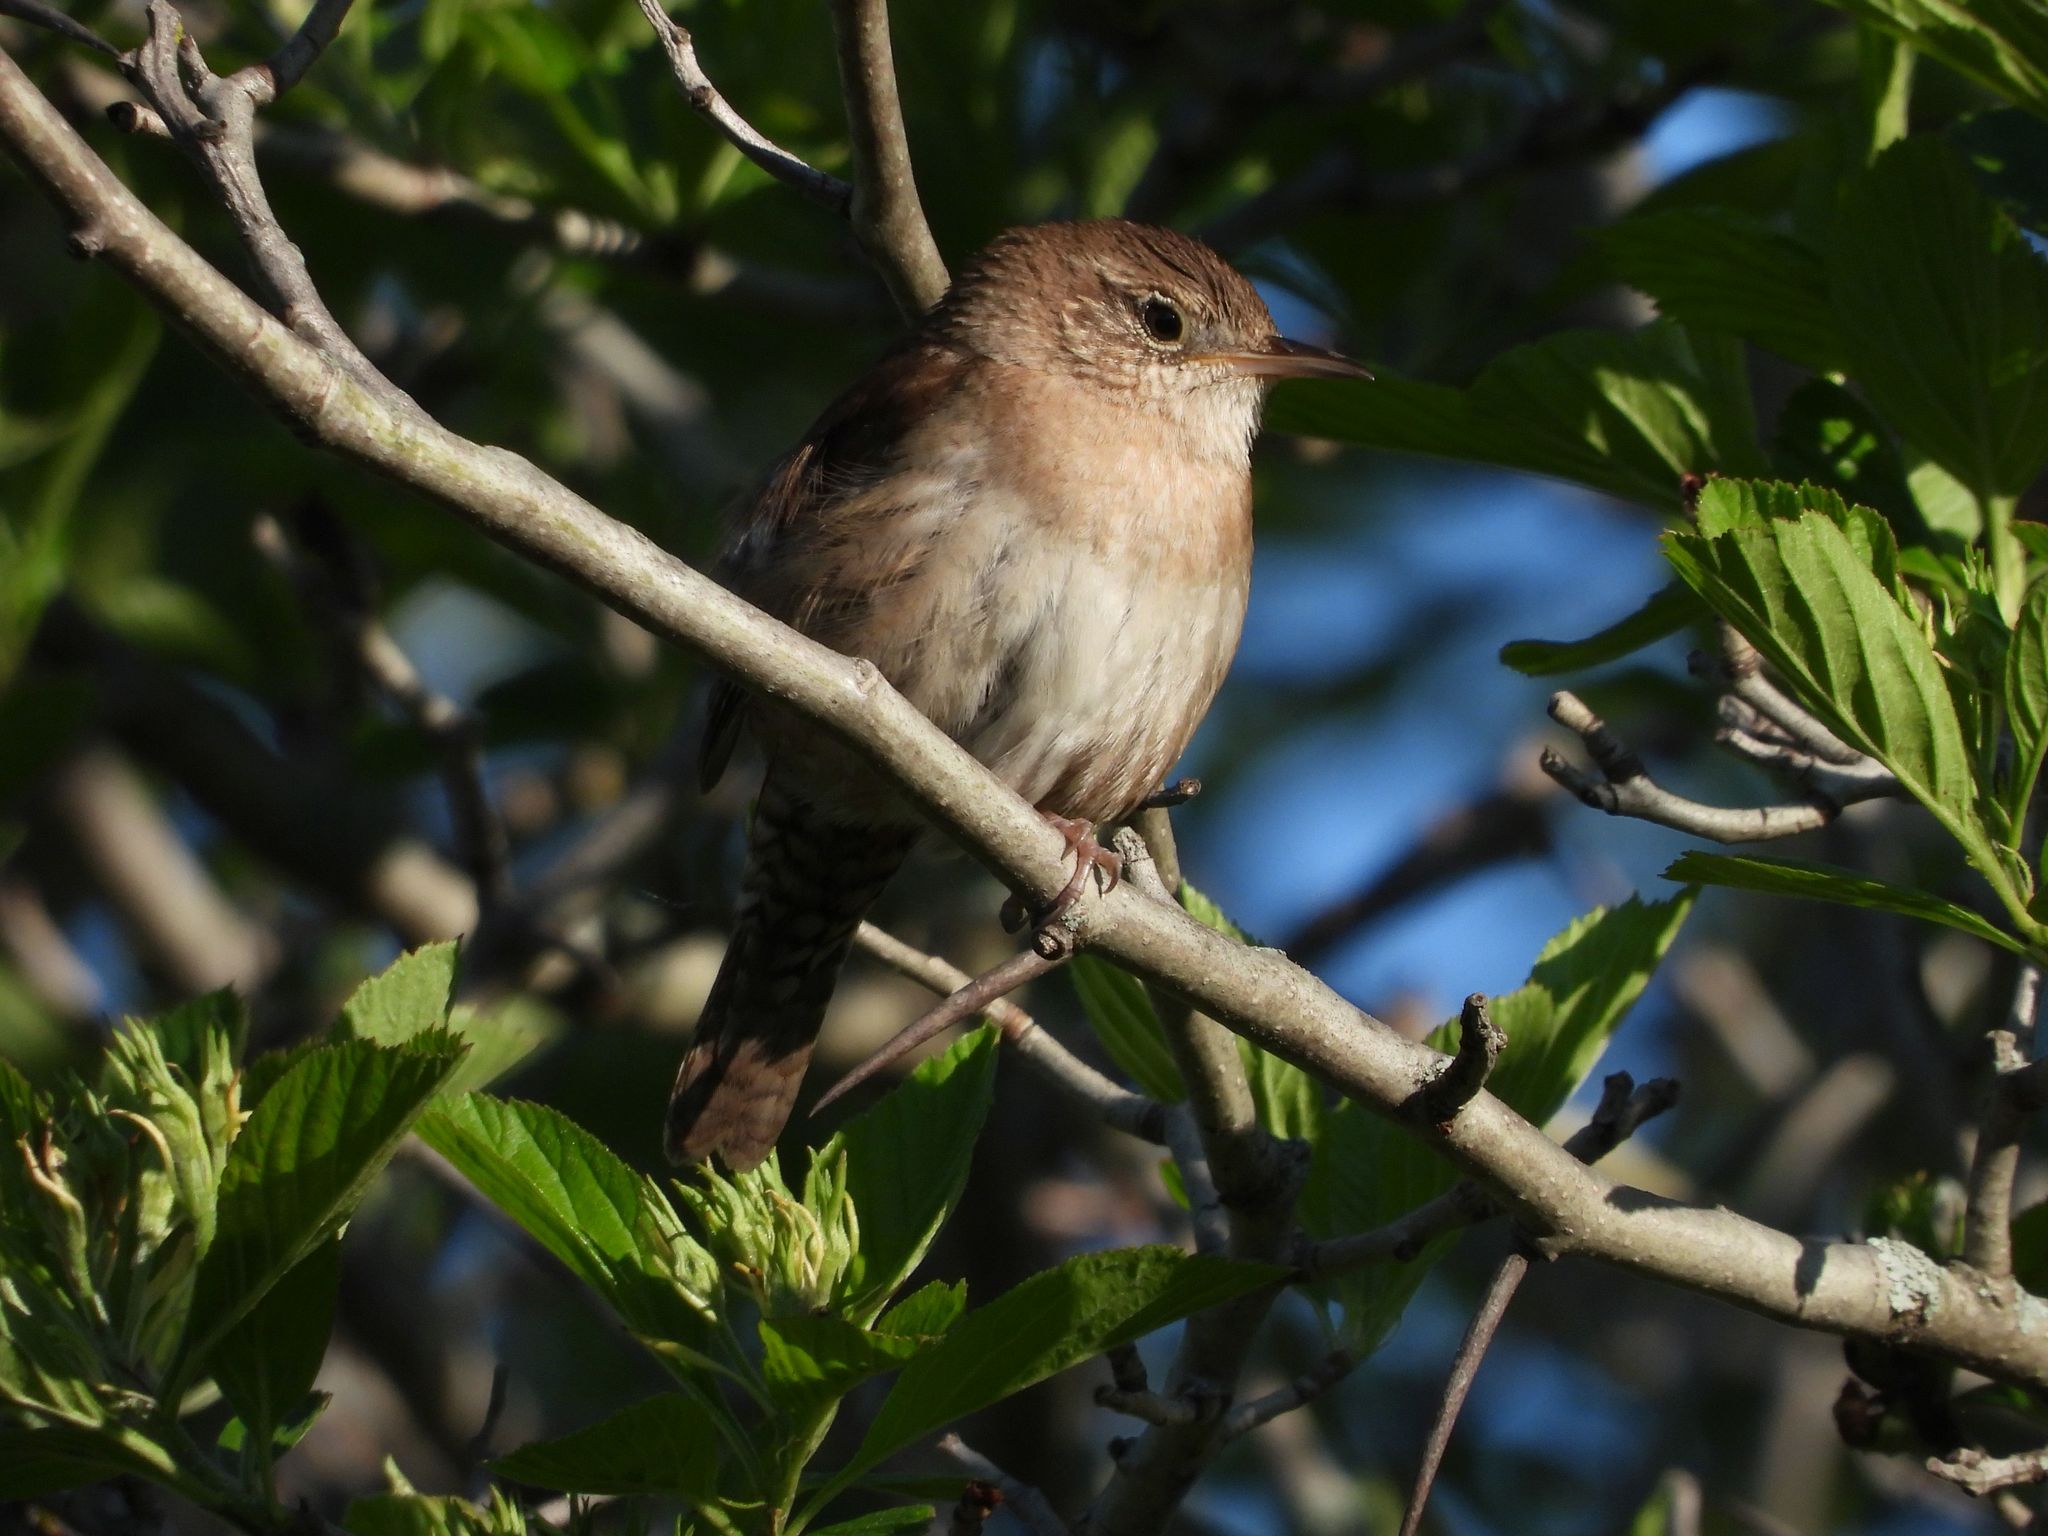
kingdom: Animalia
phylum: Chordata
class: Aves
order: Passeriformes
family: Troglodytidae
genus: Troglodytes
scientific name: Troglodytes aedon
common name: House wren
